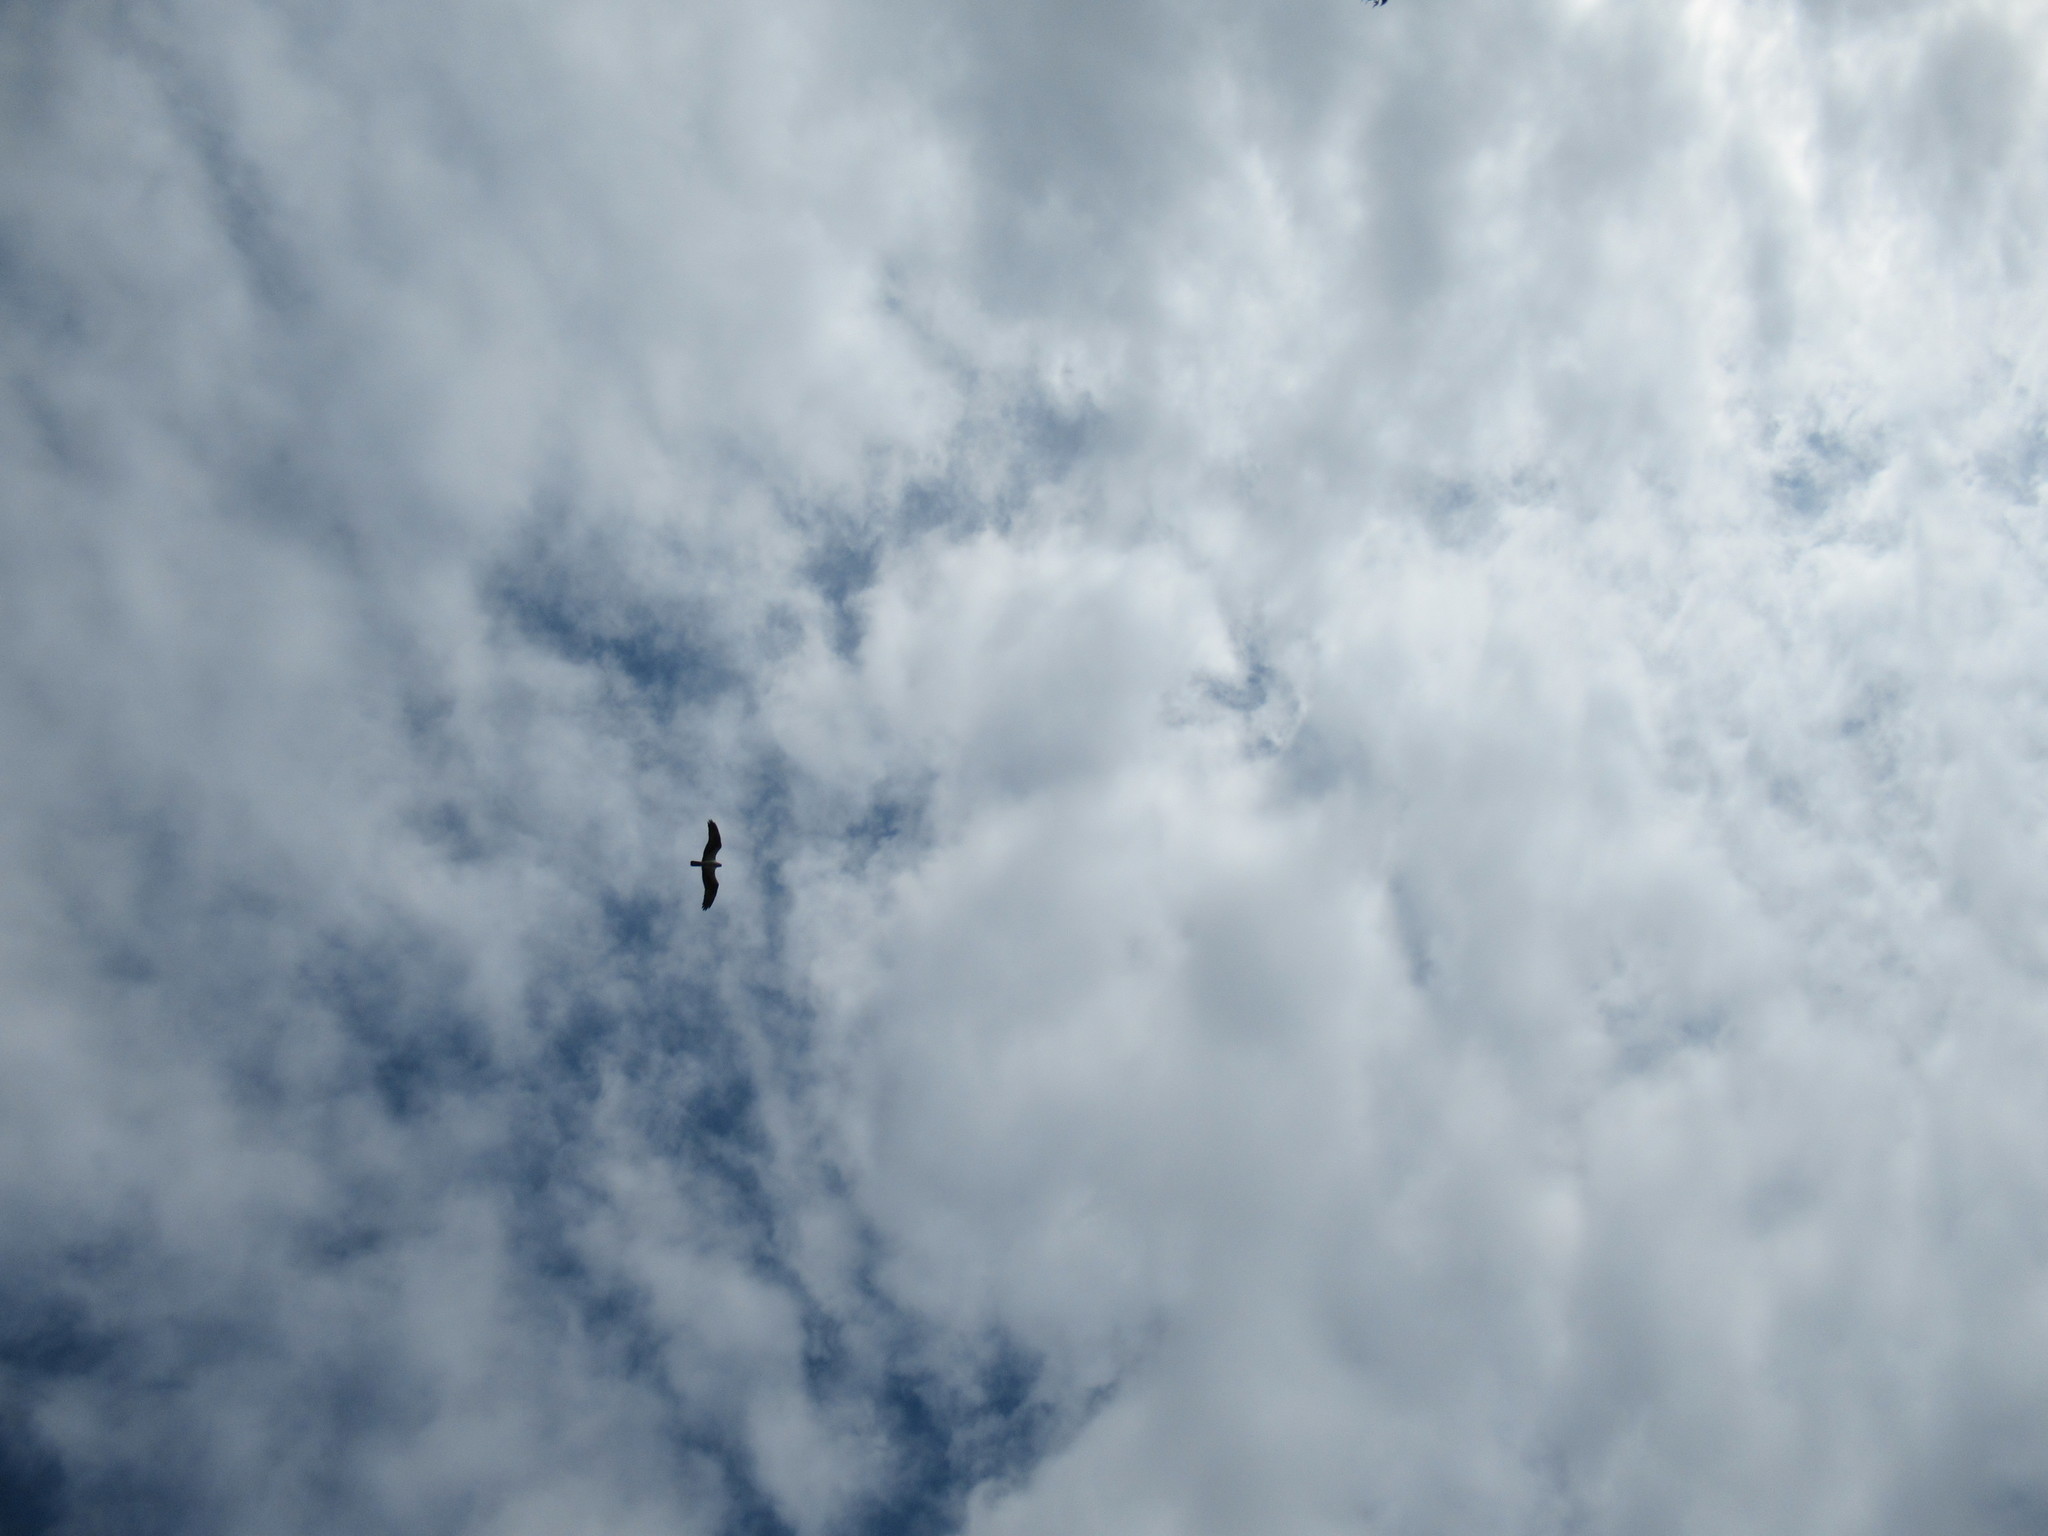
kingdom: Animalia
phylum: Chordata
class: Aves
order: Accipitriformes
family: Pandionidae
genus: Pandion
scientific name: Pandion haliaetus
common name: Osprey
